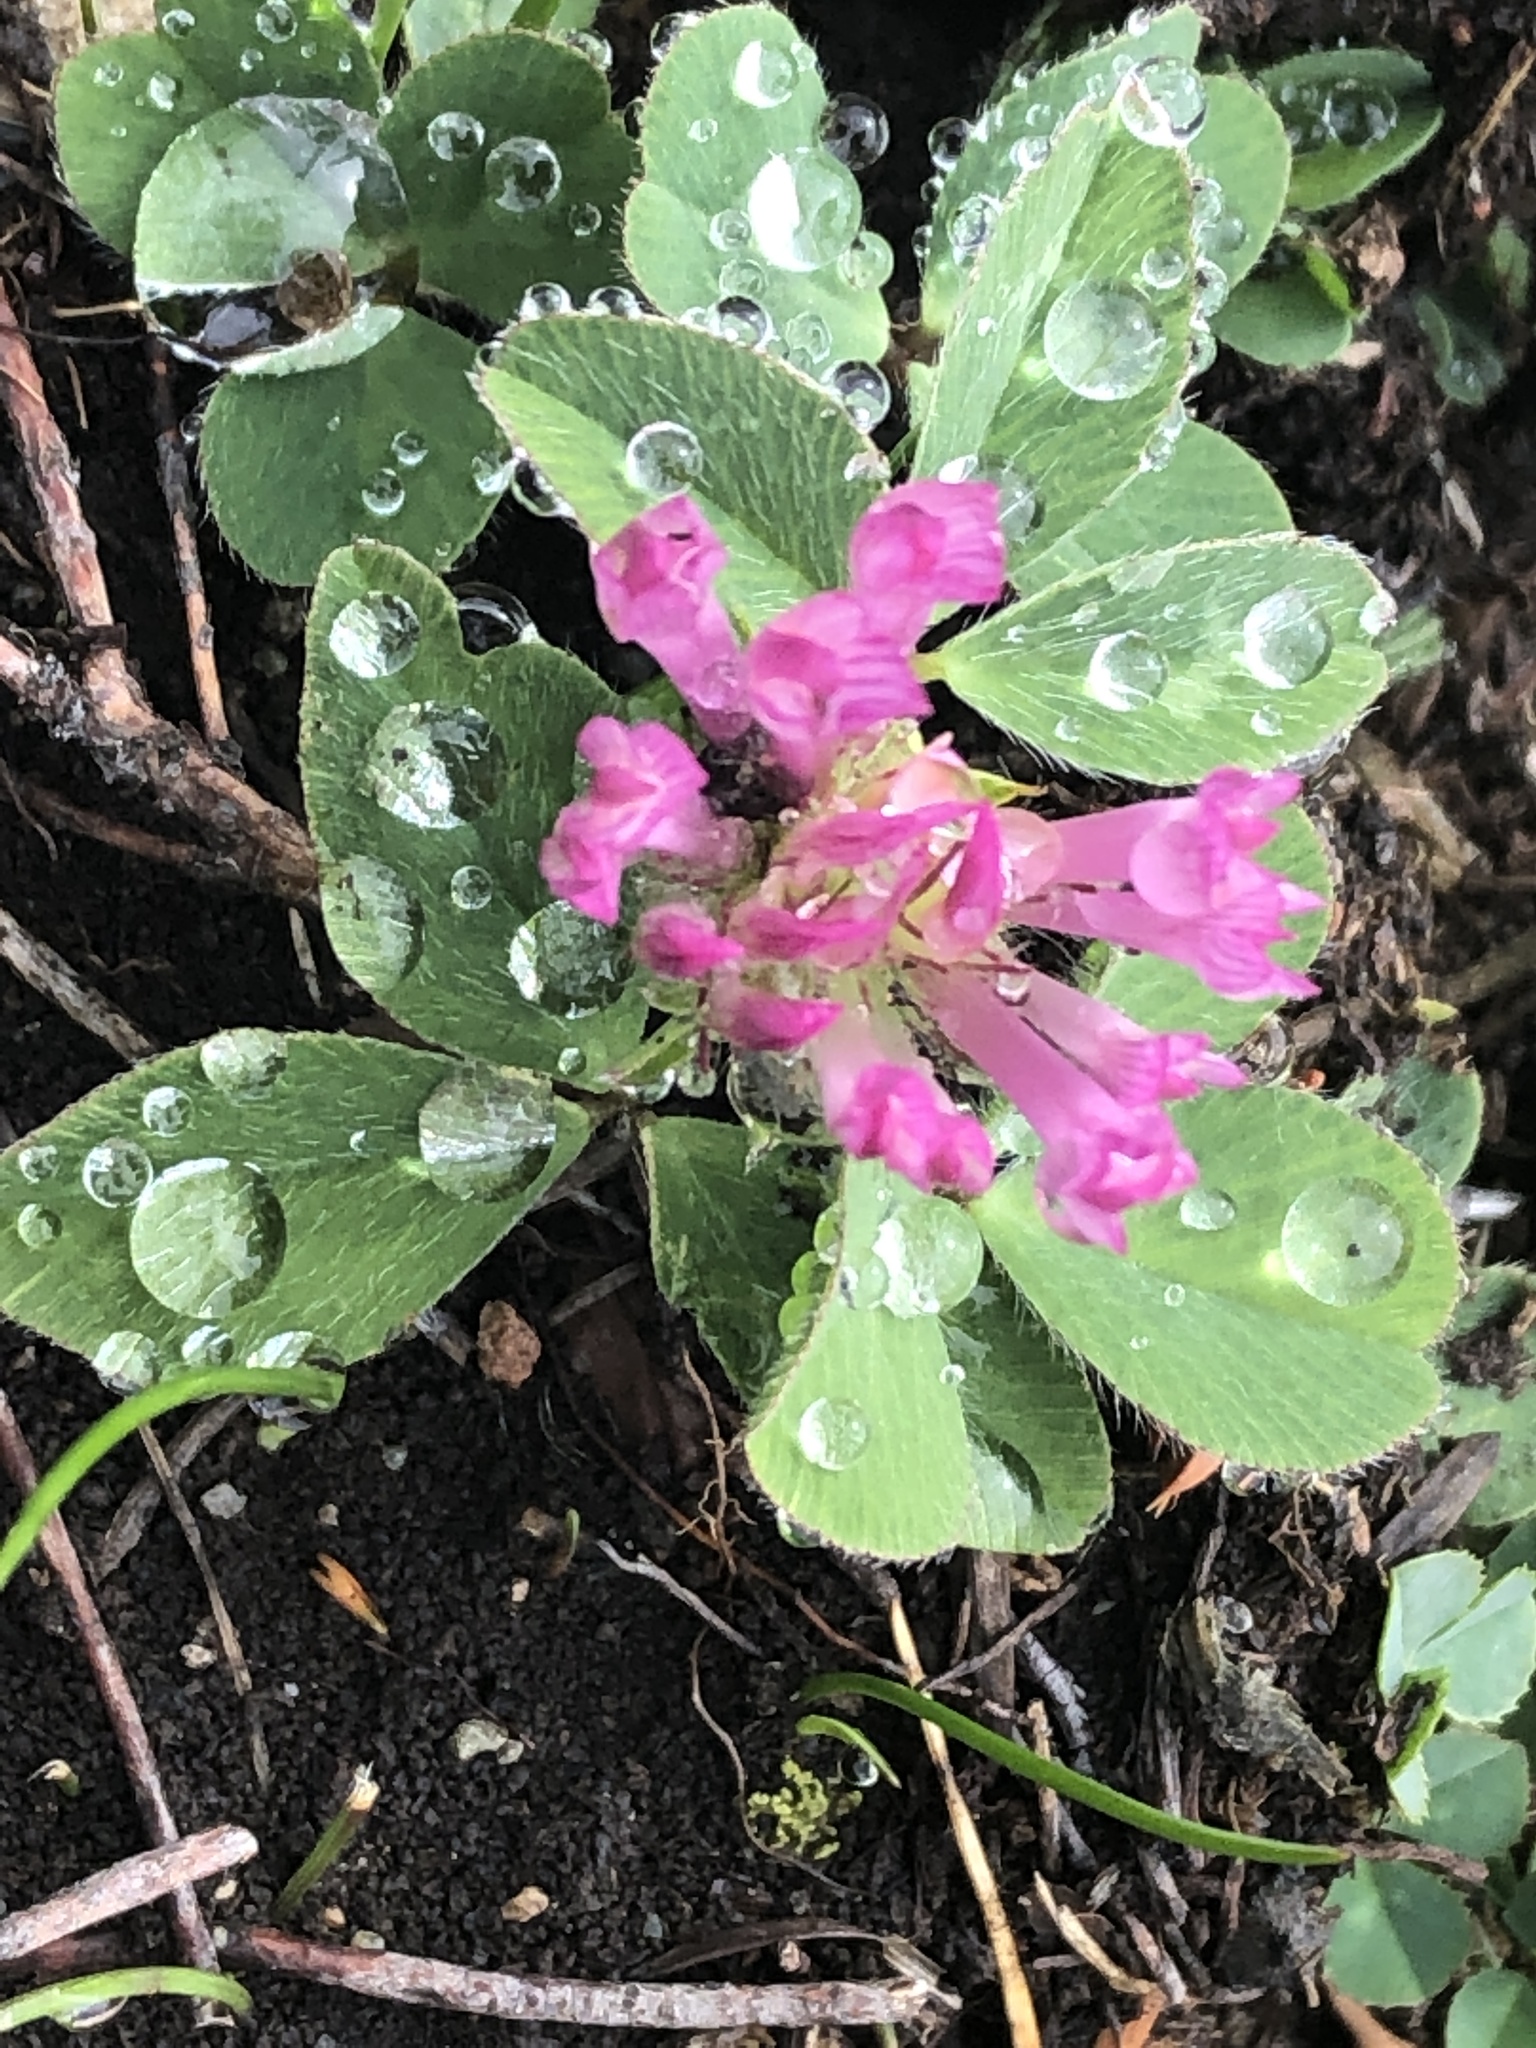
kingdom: Plantae
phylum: Tracheophyta
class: Magnoliopsida
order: Fabales
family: Fabaceae
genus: Trifolium
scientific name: Trifolium pratense
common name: Red clover
